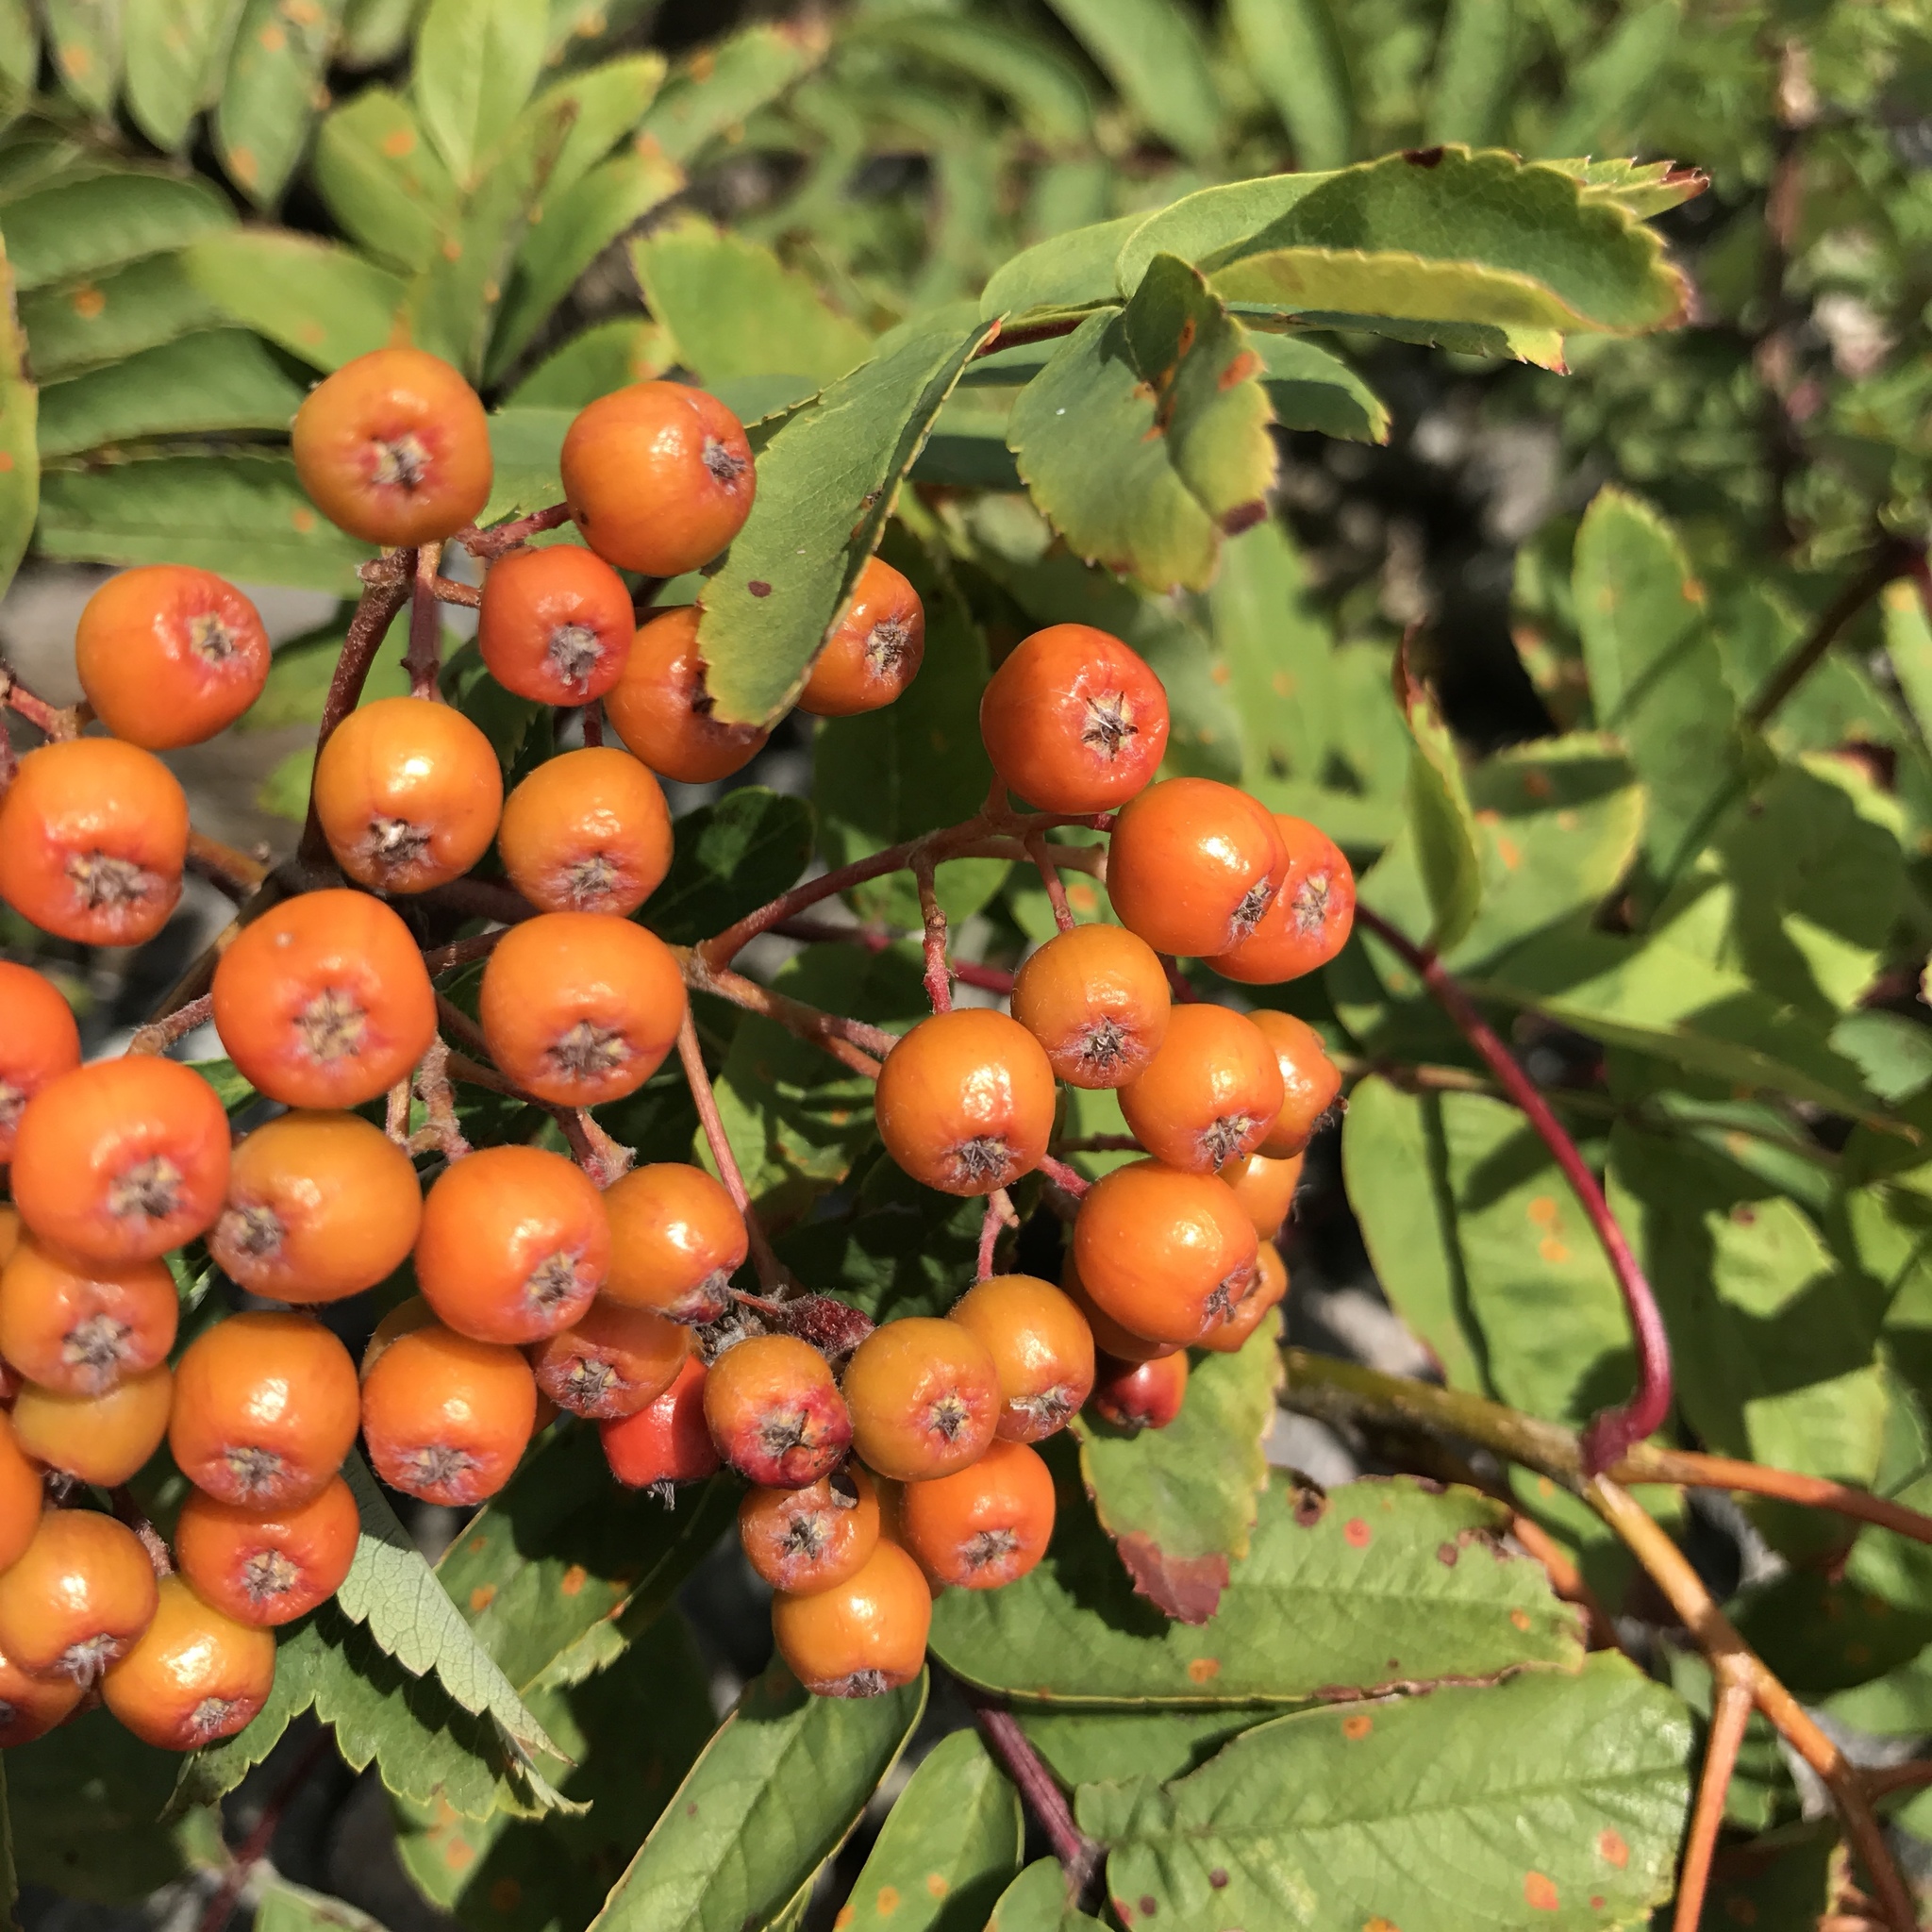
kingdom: Plantae
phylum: Tracheophyta
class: Magnoliopsida
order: Rosales
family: Rosaceae
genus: Sorbus
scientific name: Sorbus aucuparia
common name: Rowan
